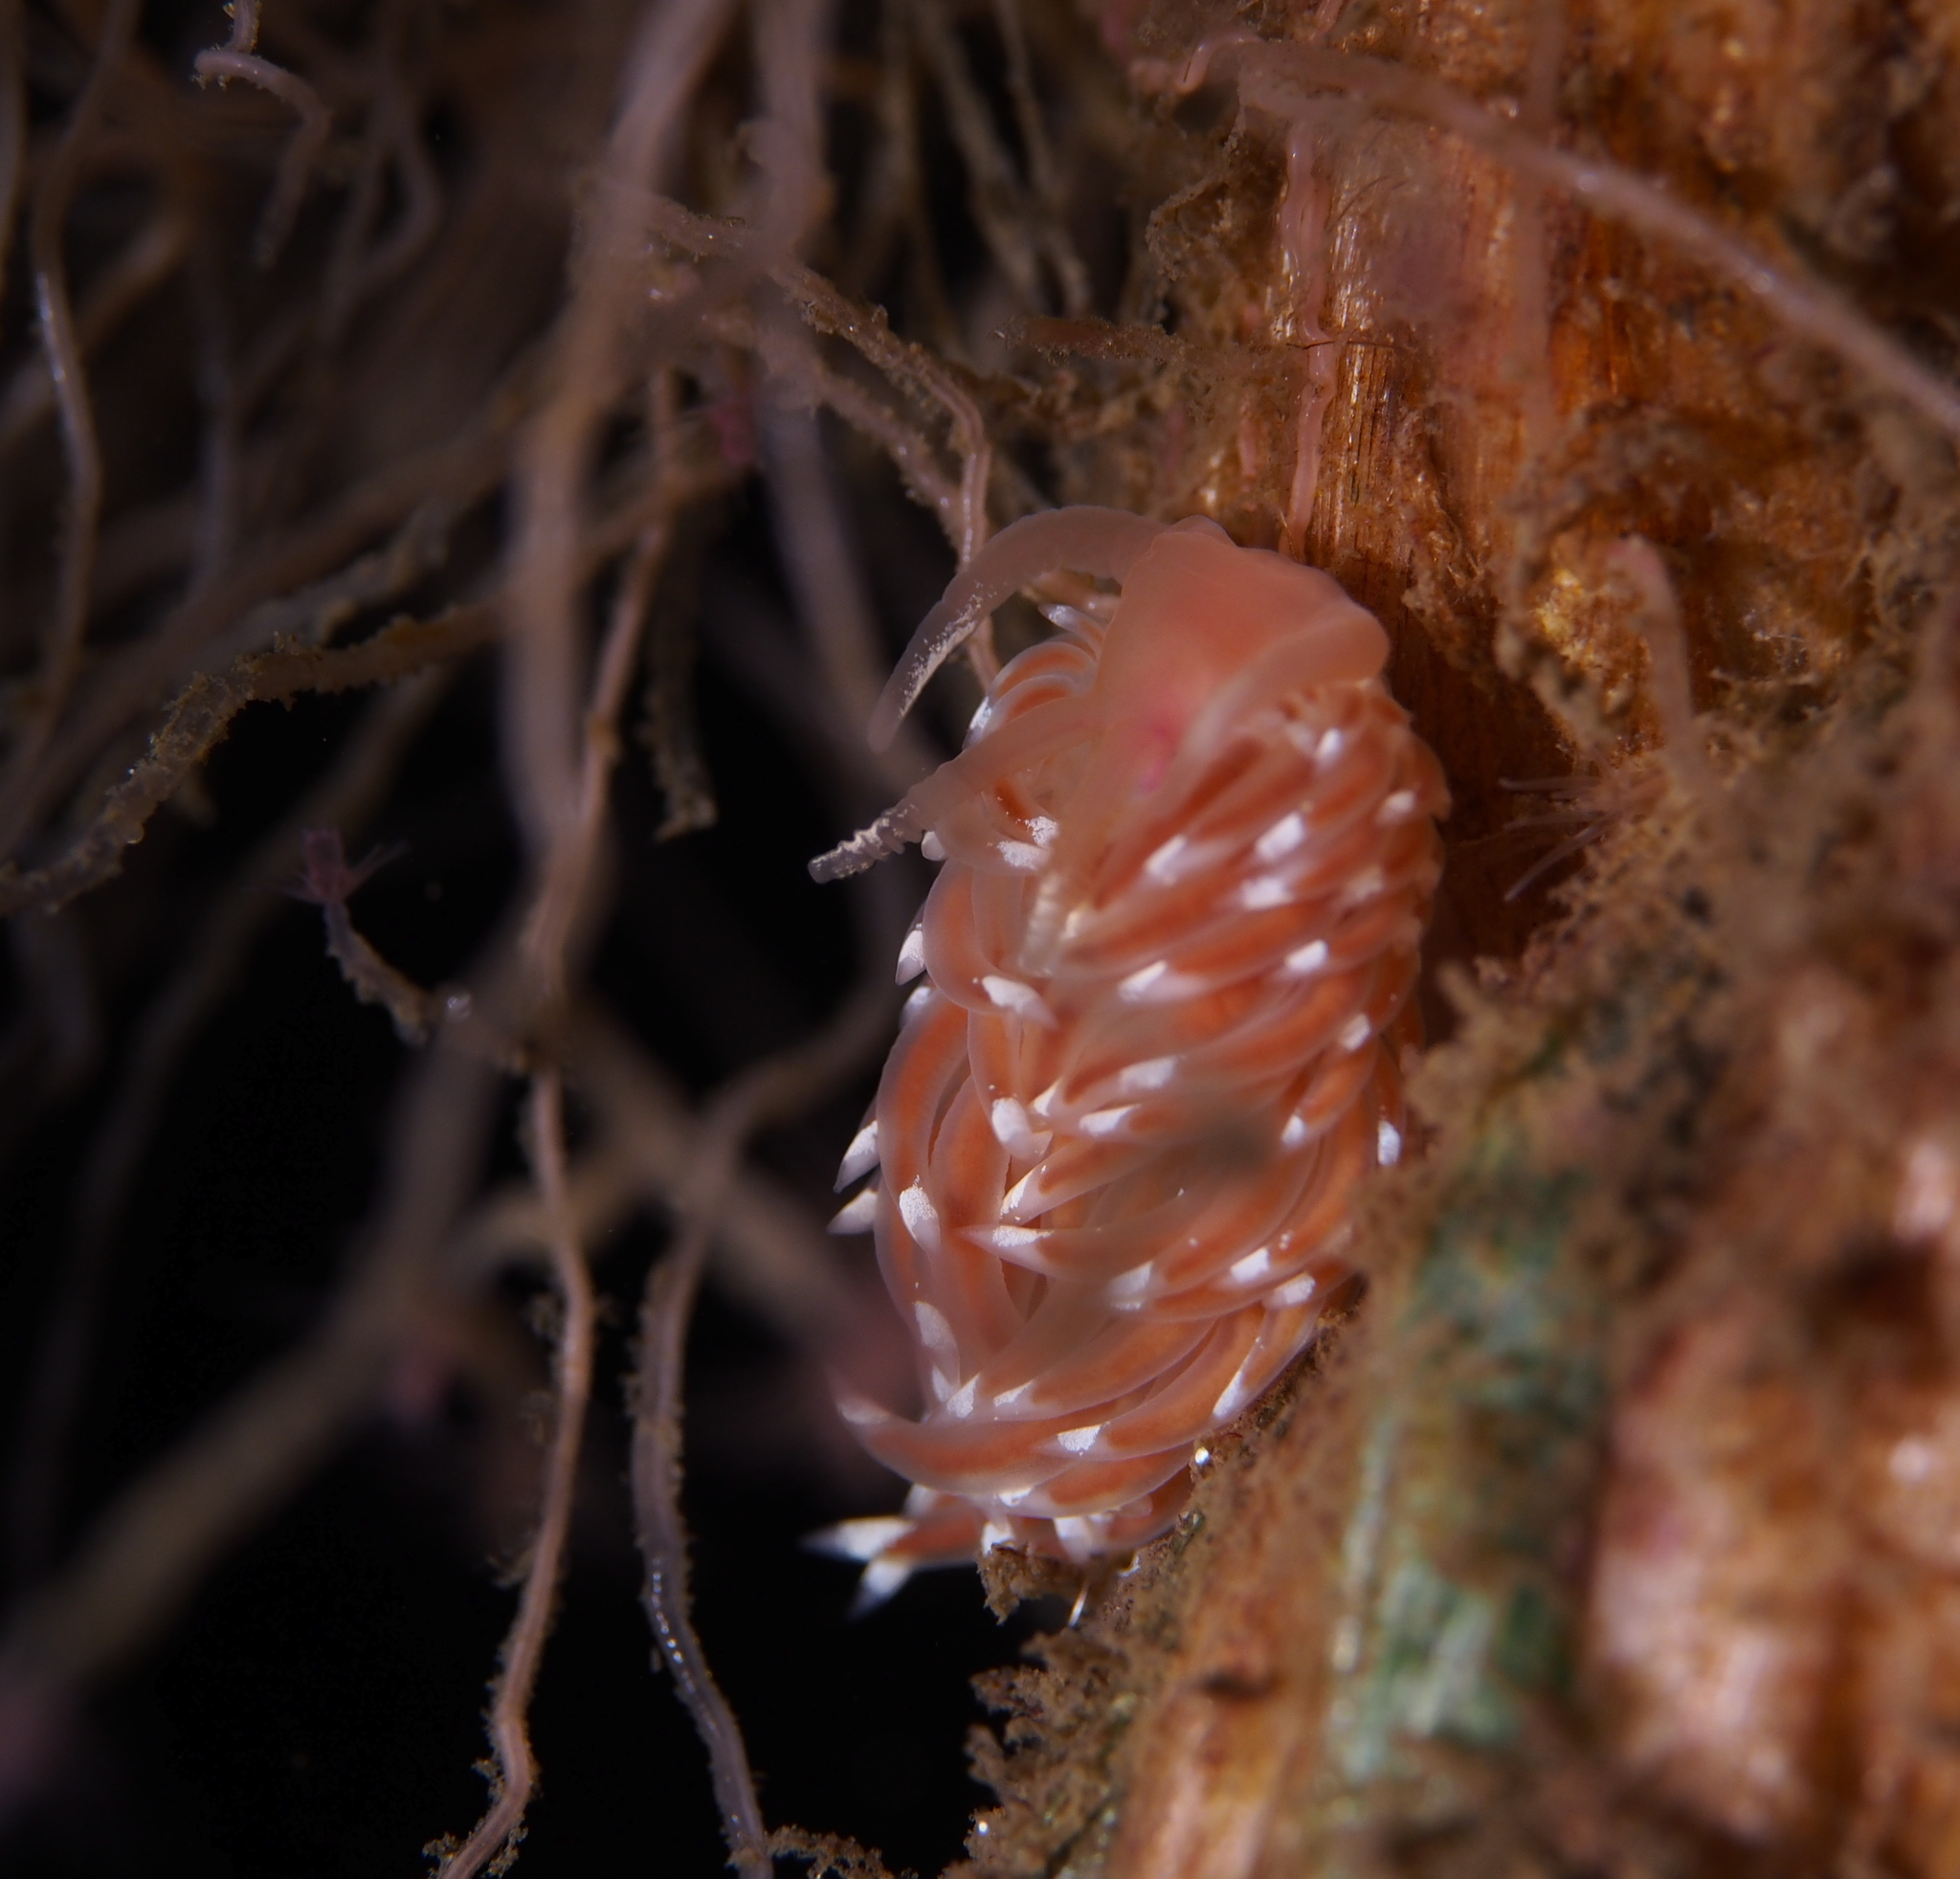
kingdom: Animalia
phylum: Mollusca
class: Gastropoda
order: Nudibranchia
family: Facelinidae
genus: Facelina
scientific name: Facelina bostoniensis
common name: Boston facelina
